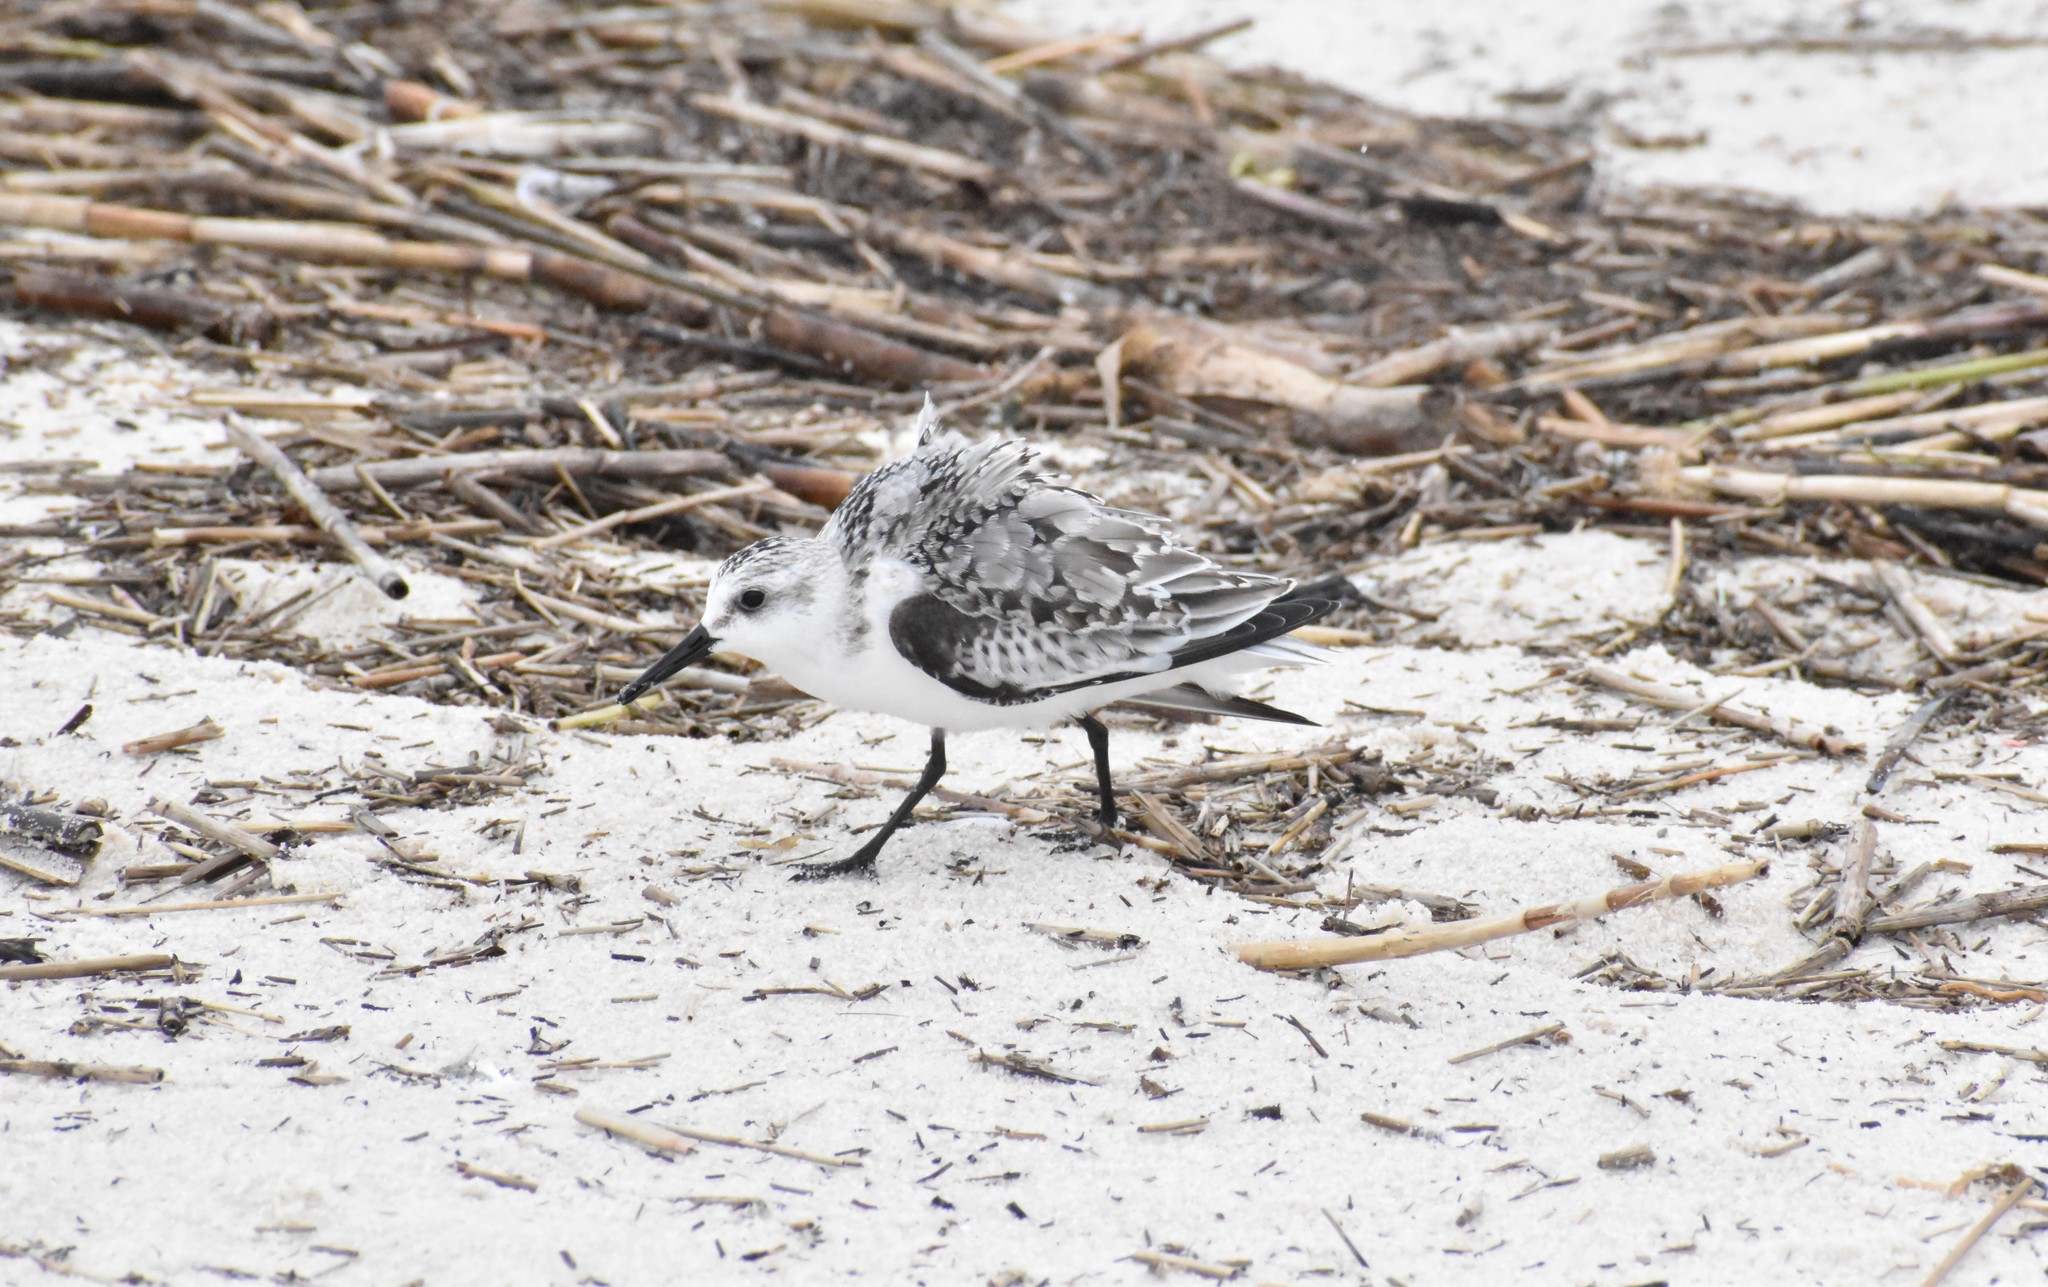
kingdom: Animalia
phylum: Chordata
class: Aves
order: Charadriiformes
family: Scolopacidae
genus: Calidris
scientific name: Calidris alba
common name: Sanderling
